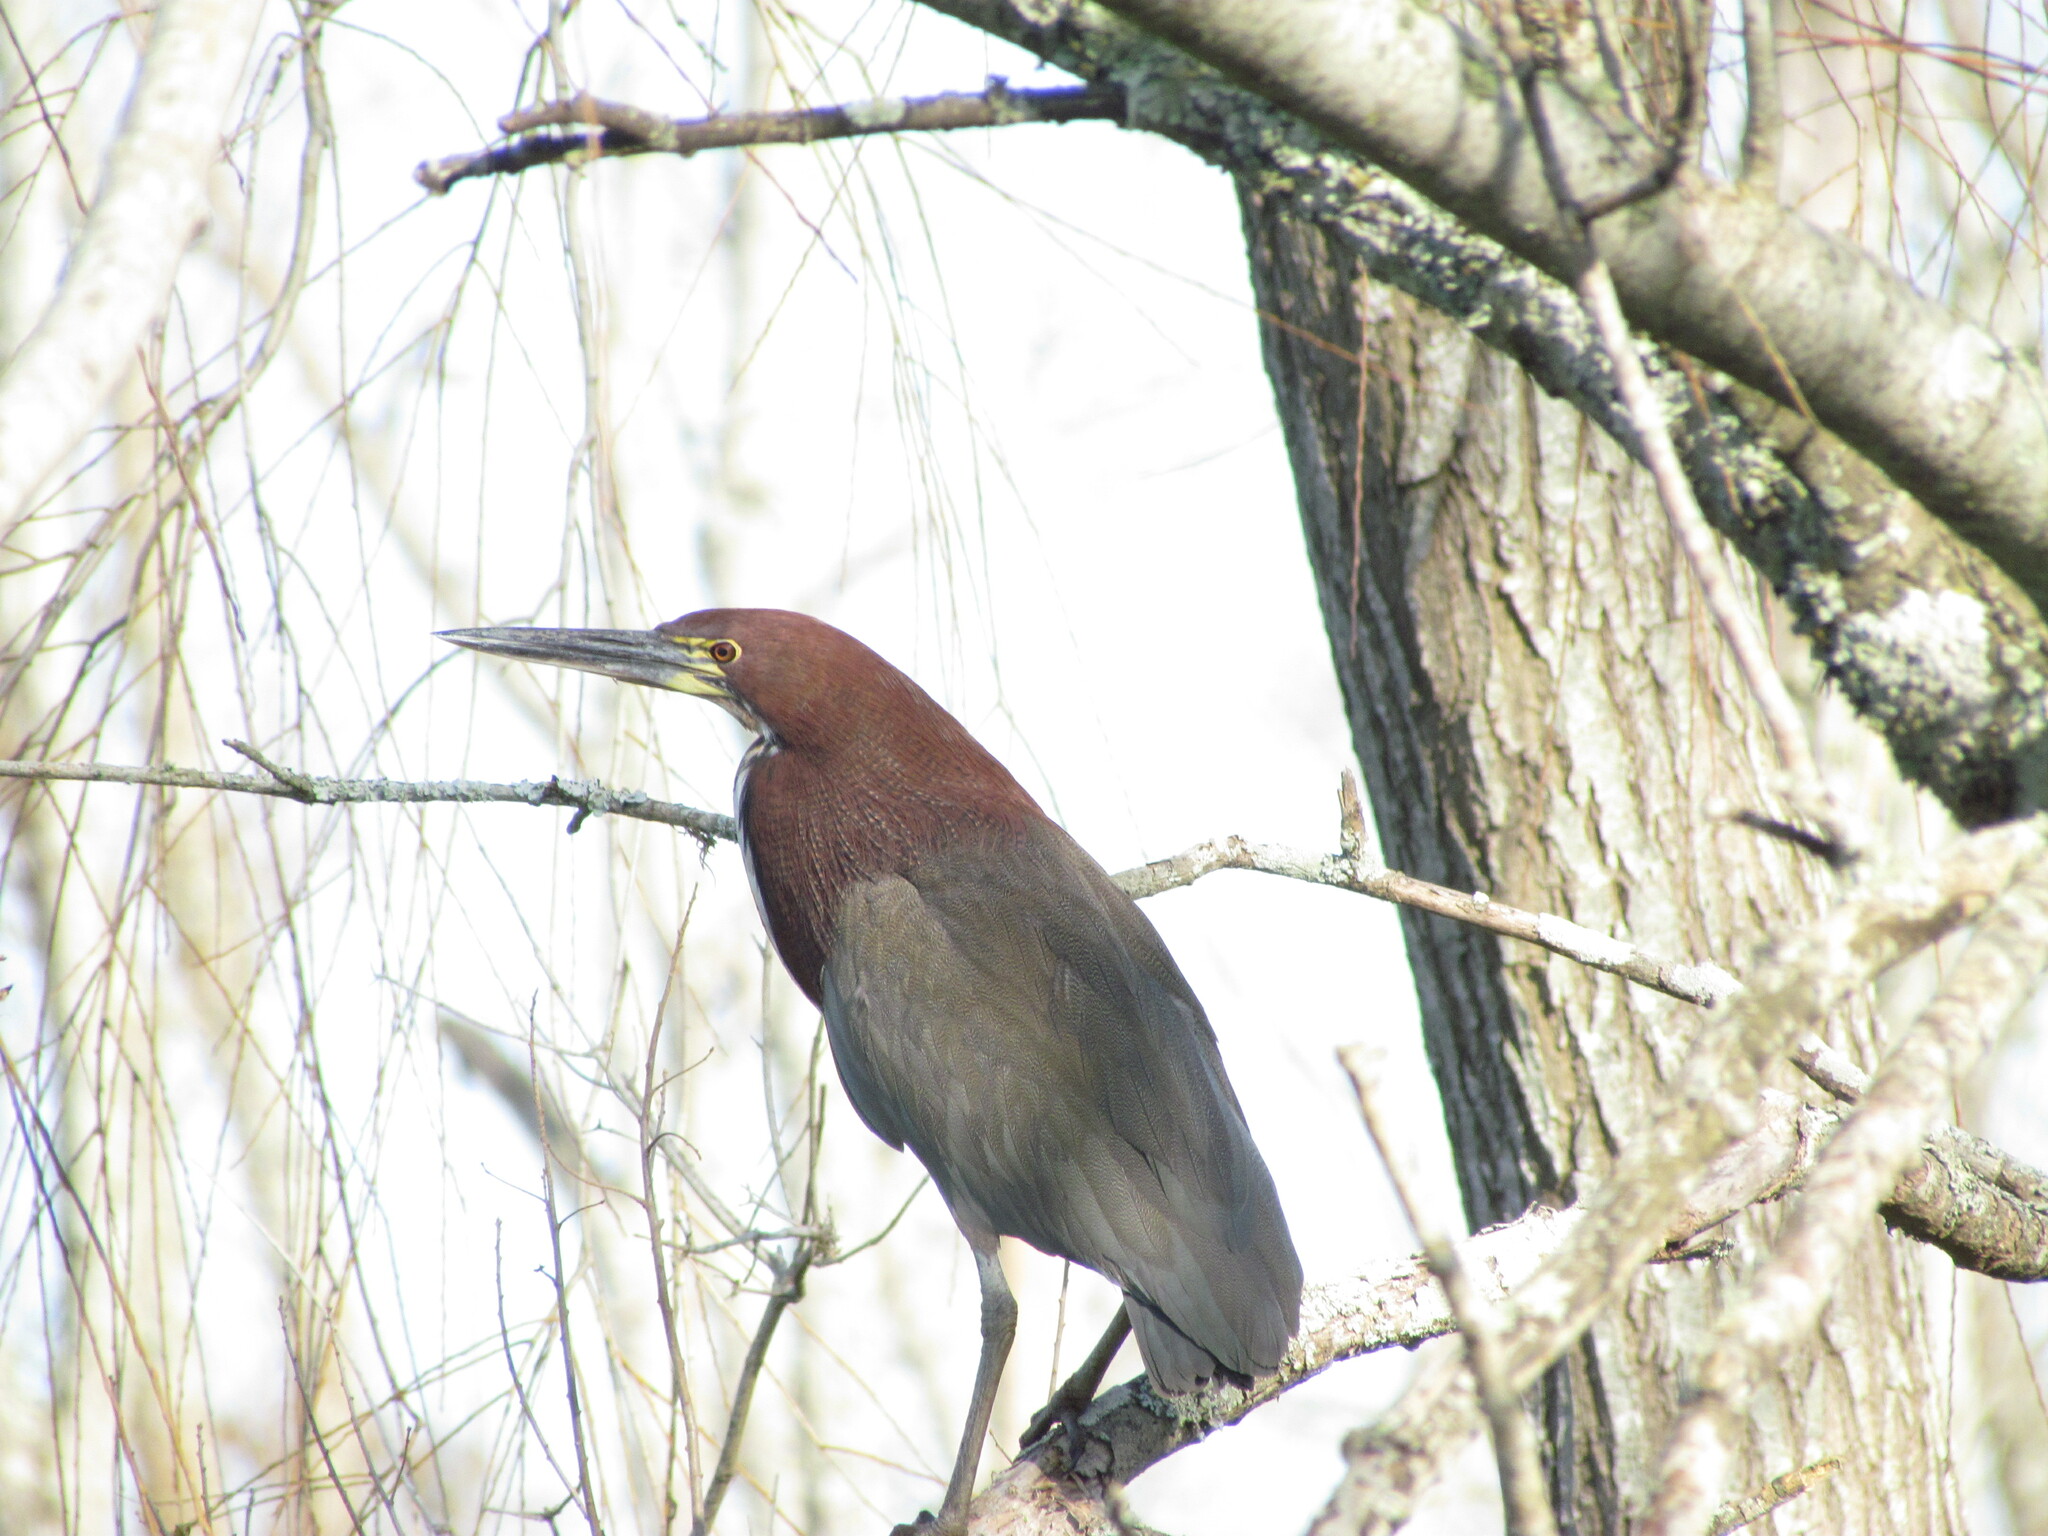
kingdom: Animalia
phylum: Chordata
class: Aves
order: Pelecaniformes
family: Ardeidae
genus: Tigrisoma
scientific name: Tigrisoma lineatum
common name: Rufescent tiger-heron
